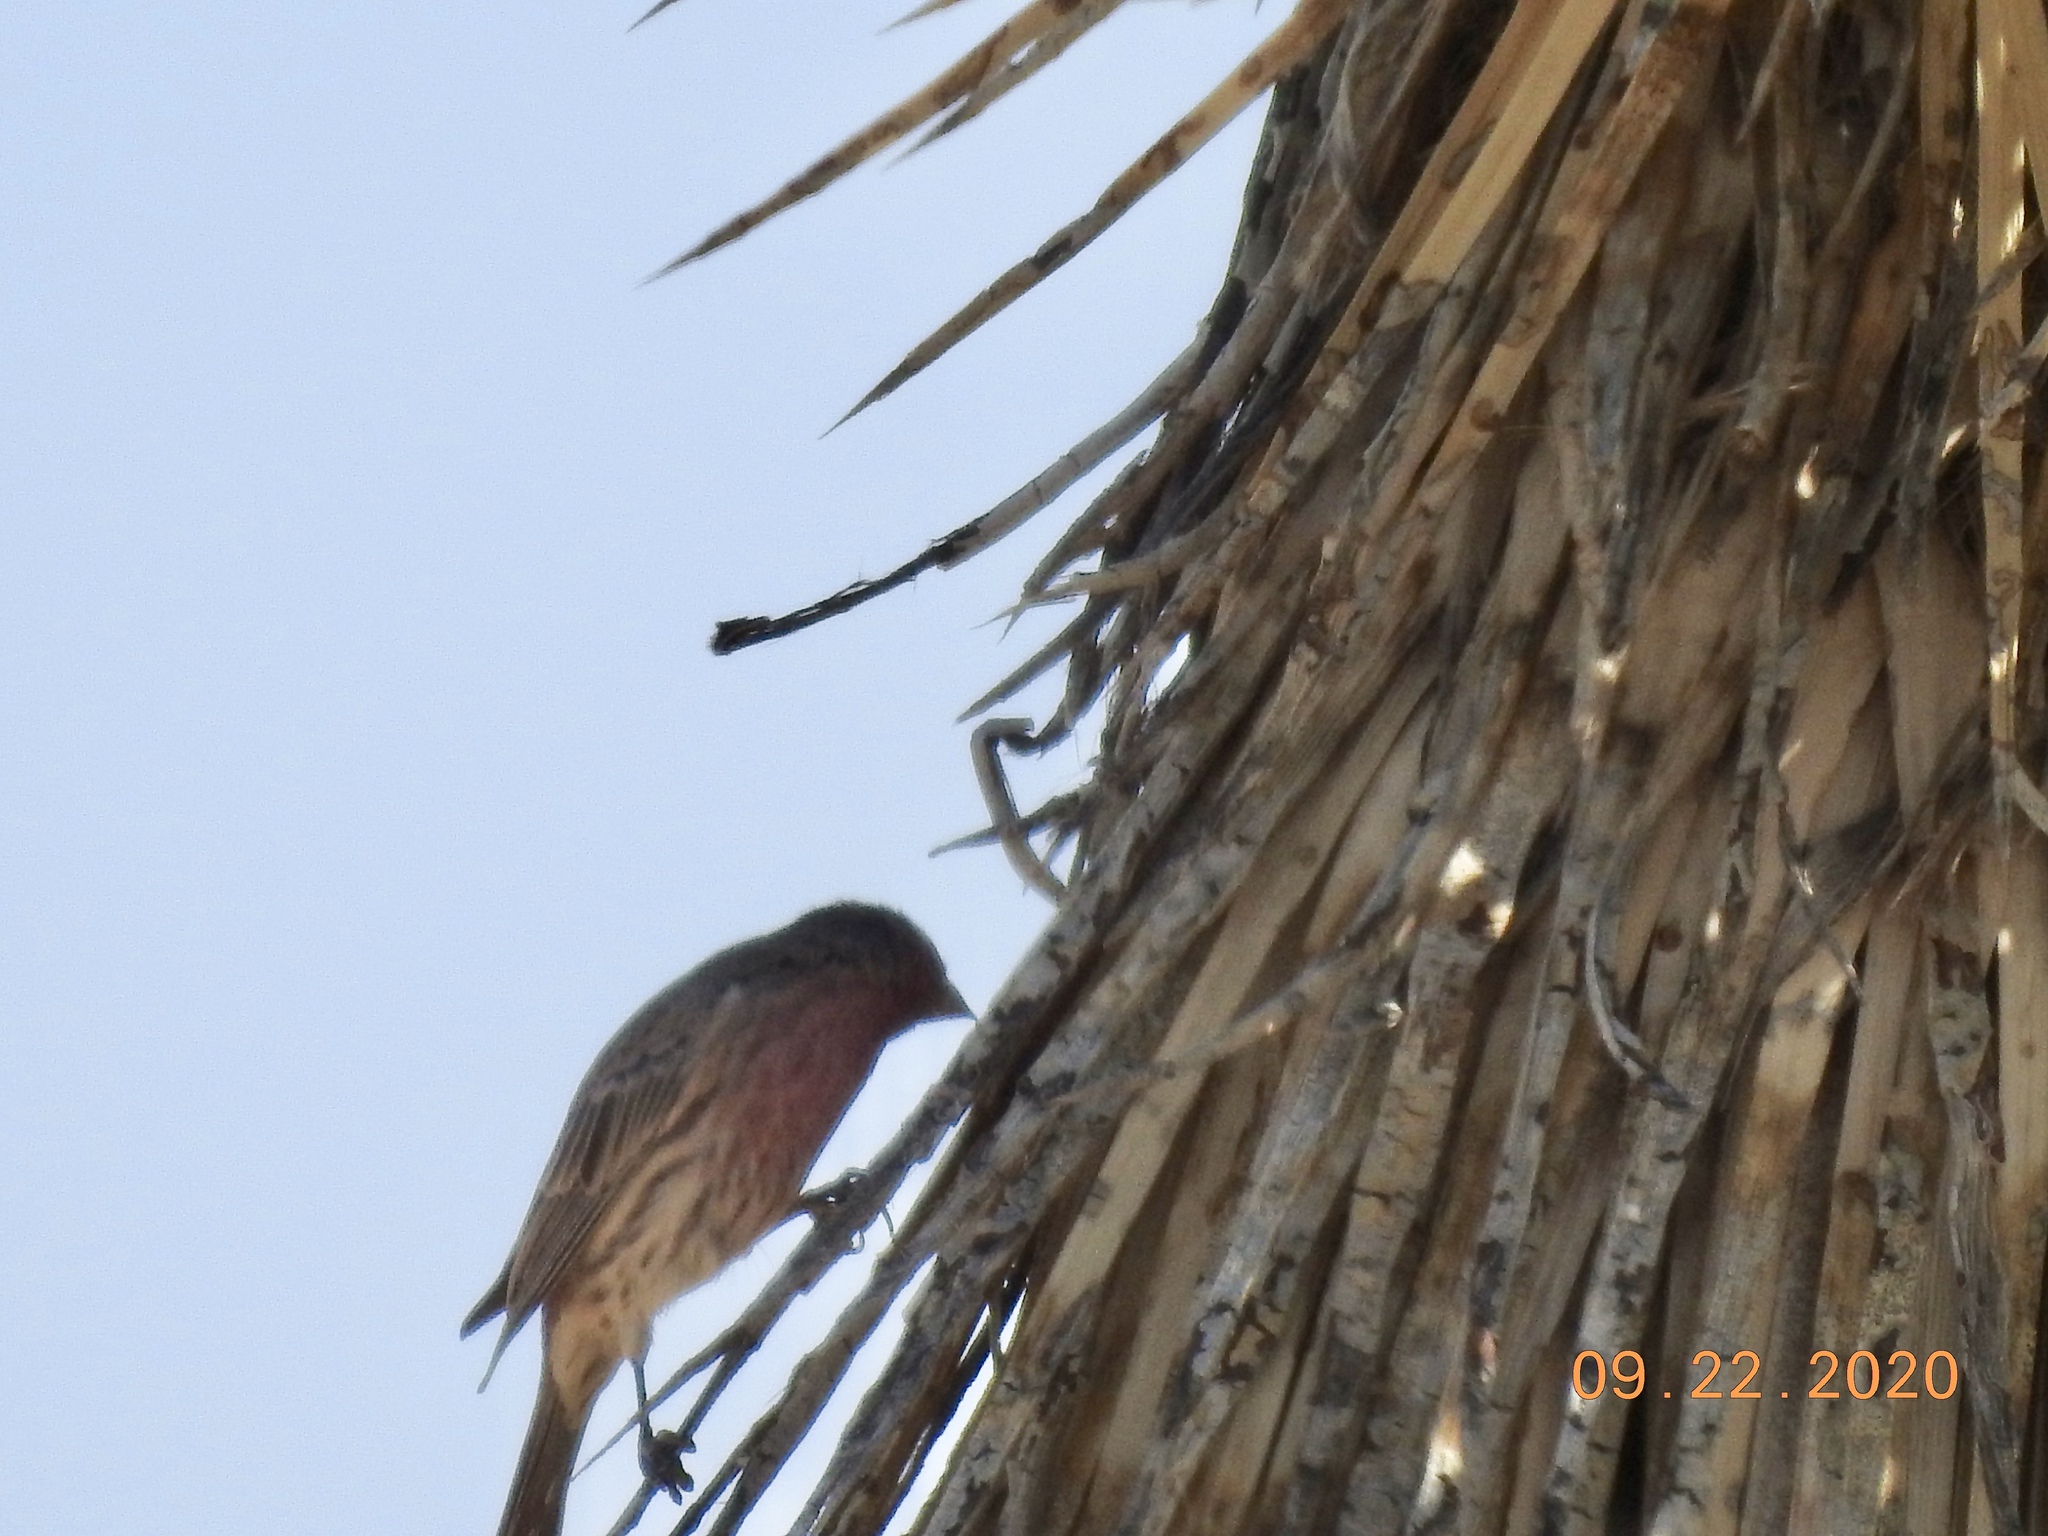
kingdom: Animalia
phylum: Chordata
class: Aves
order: Passeriformes
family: Fringillidae
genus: Haemorhous
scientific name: Haemorhous mexicanus
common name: House finch
